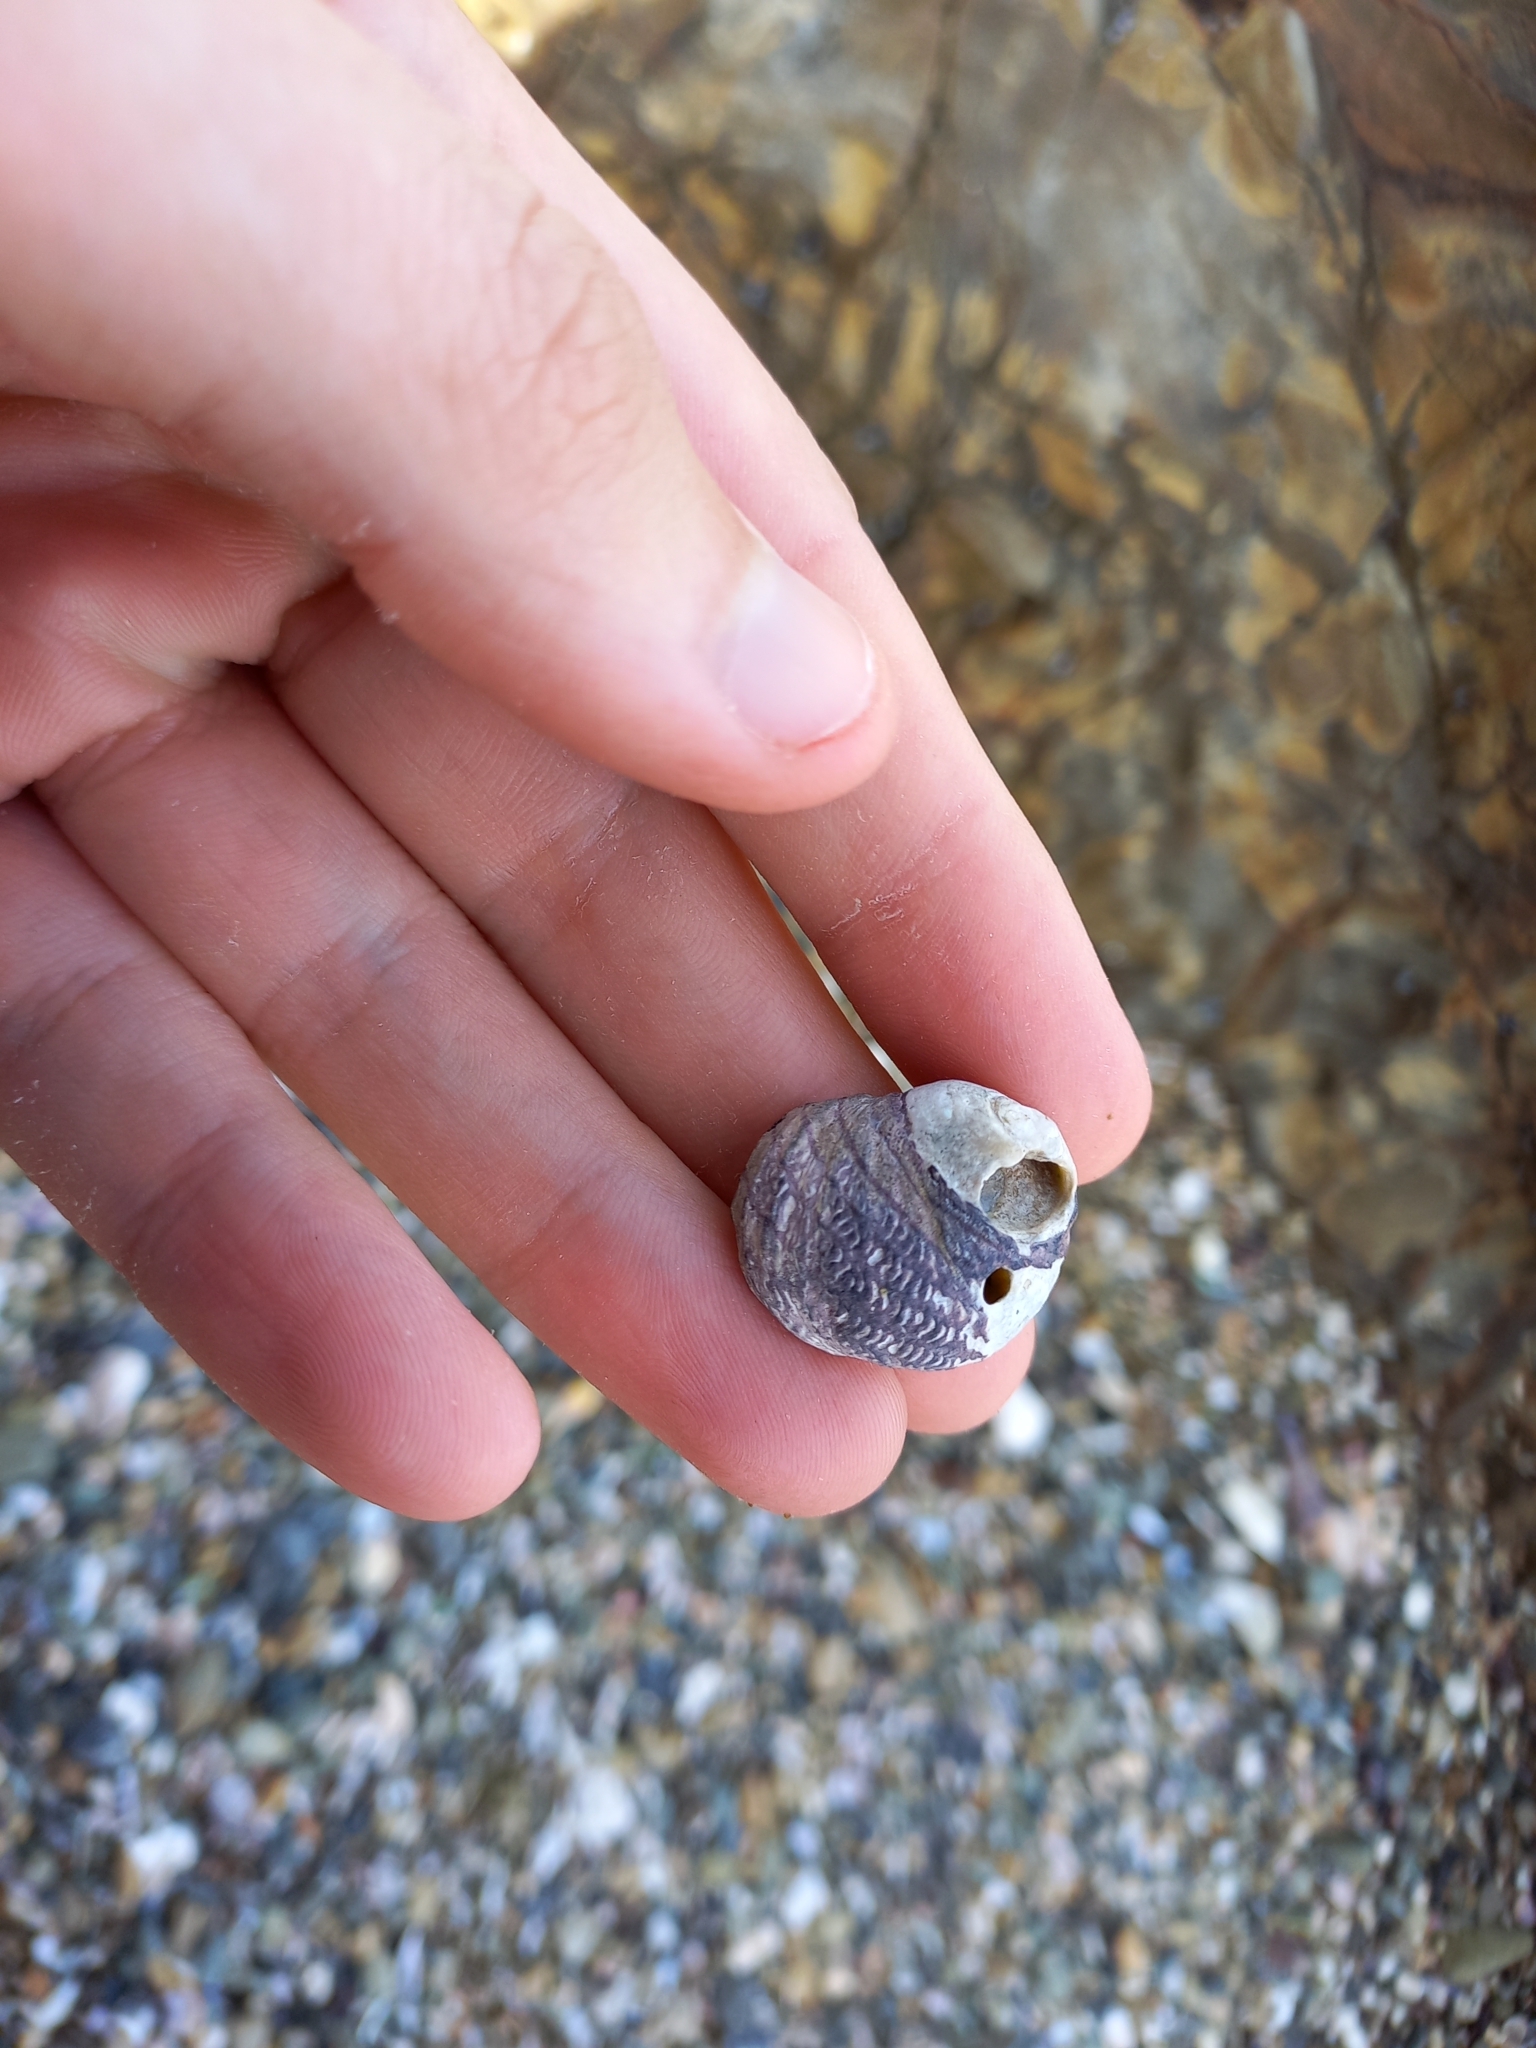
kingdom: Animalia
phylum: Mollusca
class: Gastropoda
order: Trochida
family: Trochidae
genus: Diloma
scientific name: Diloma aethiops
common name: Scorched monodont
